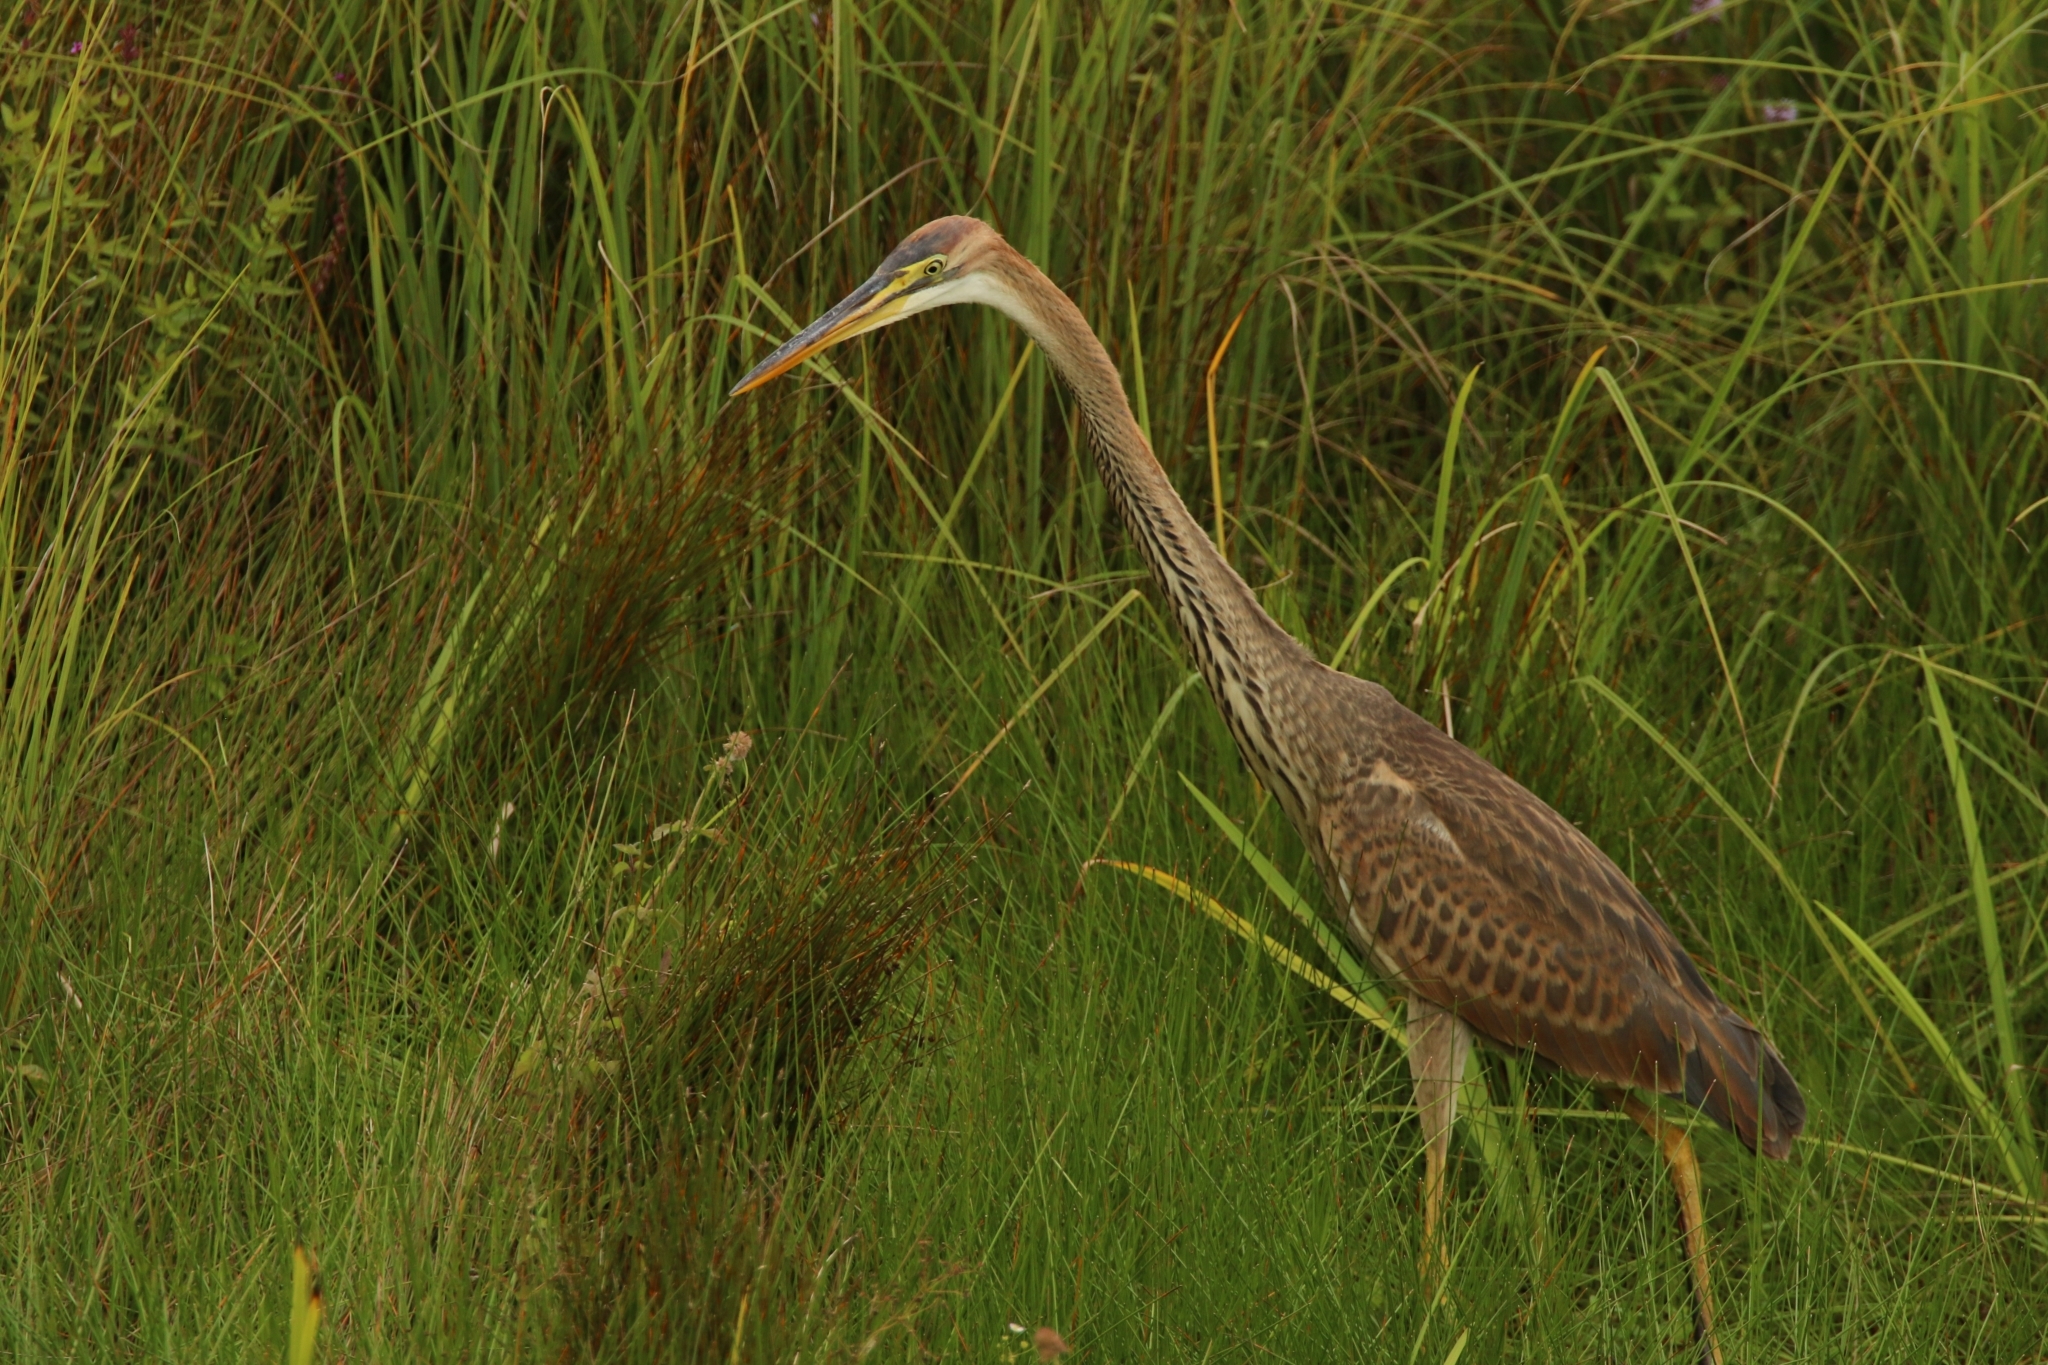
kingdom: Animalia
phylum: Chordata
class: Aves
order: Pelecaniformes
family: Ardeidae
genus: Ardea
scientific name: Ardea purpurea
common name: Purple heron
